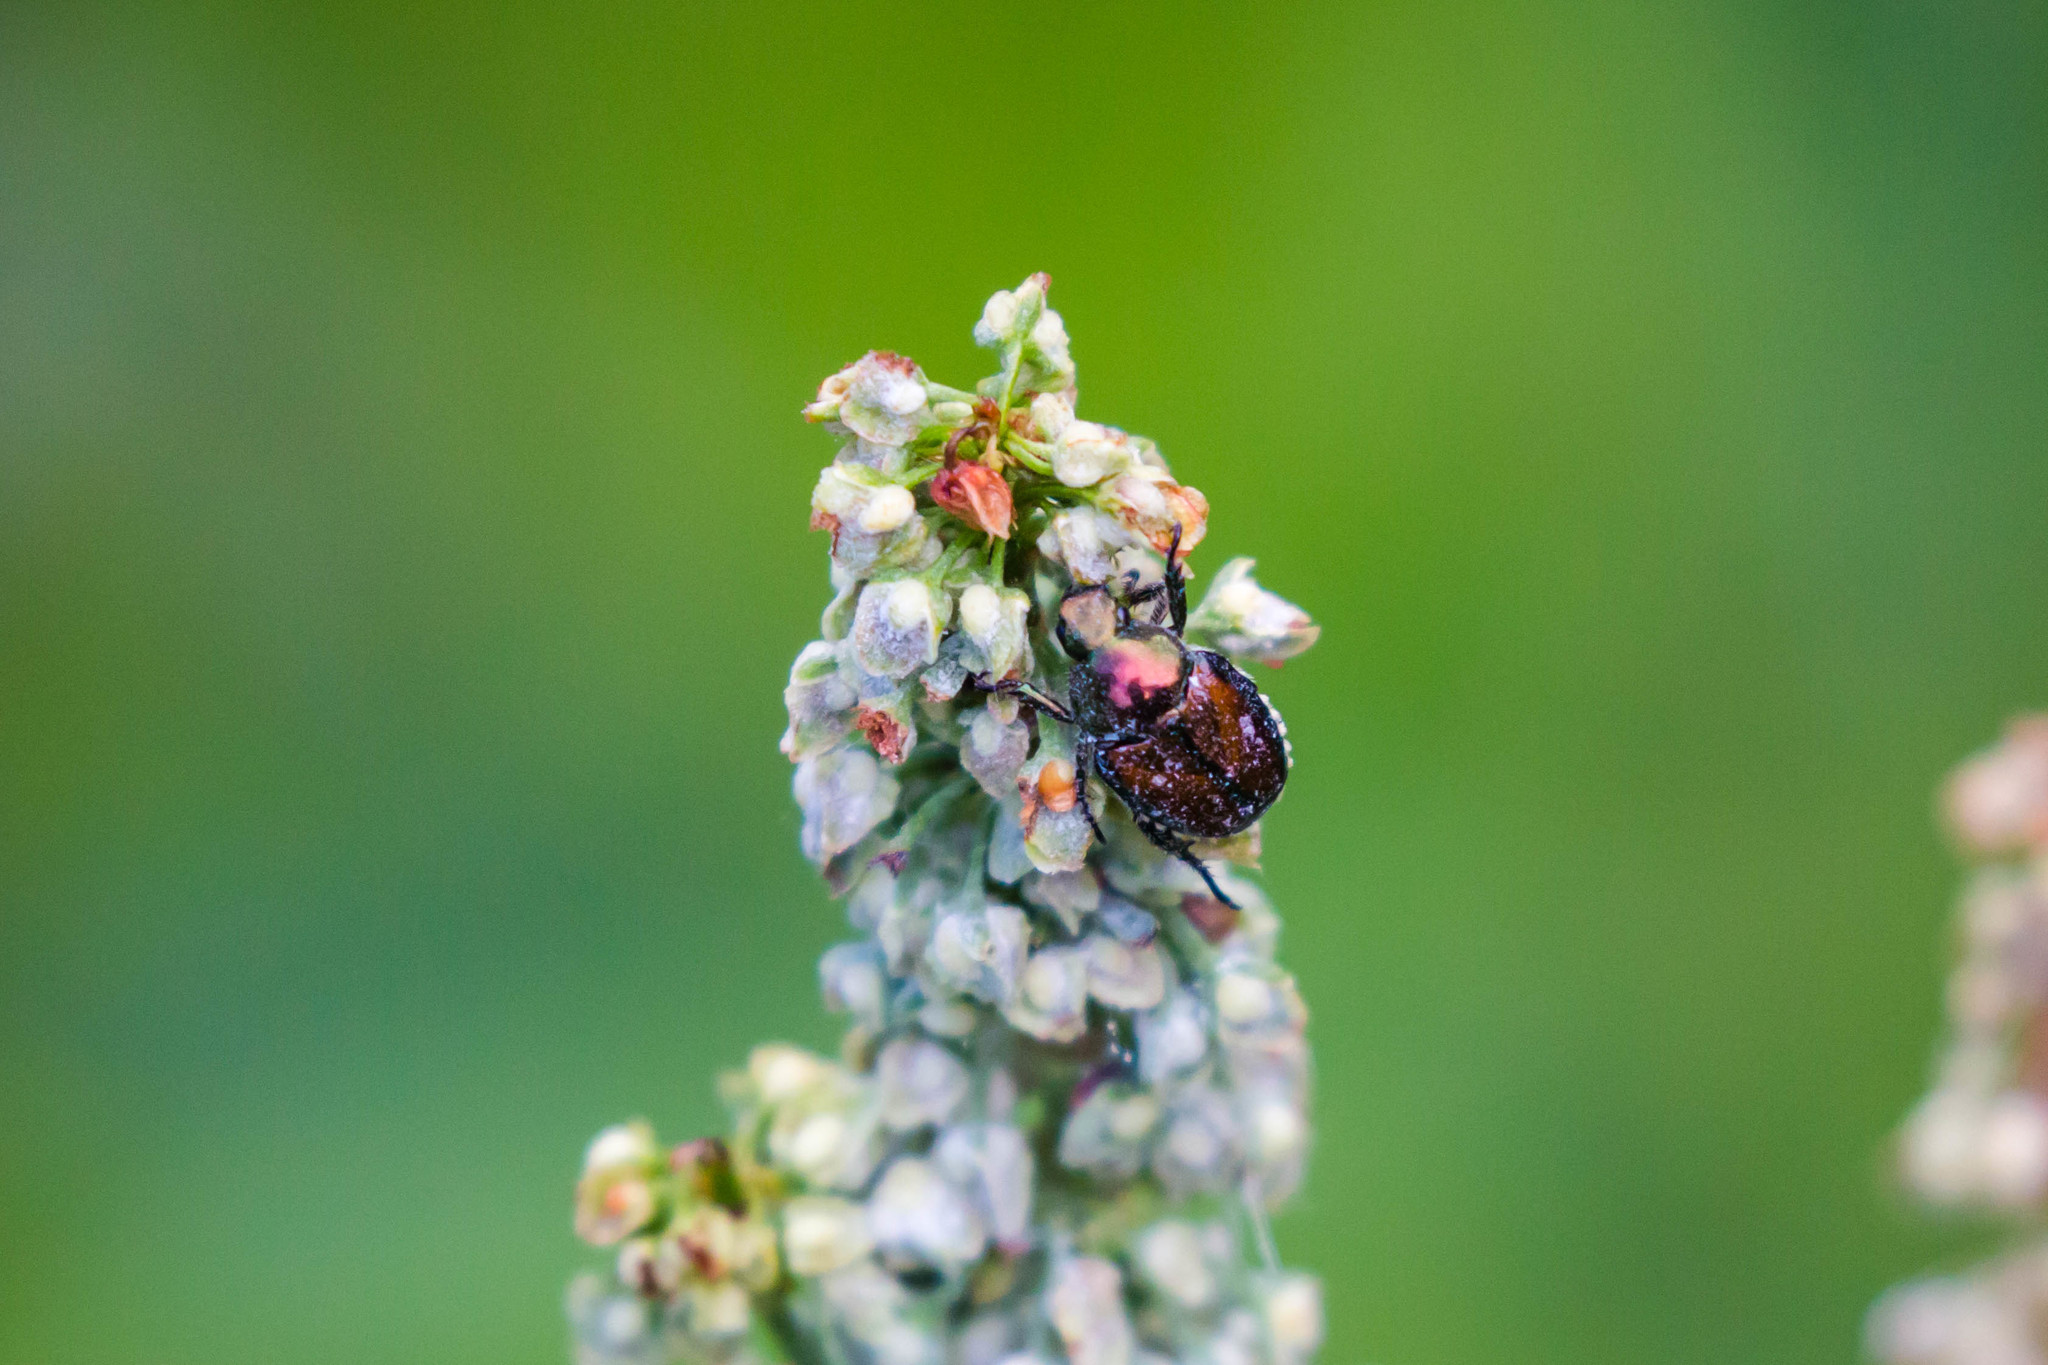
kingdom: Animalia
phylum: Arthropoda
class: Insecta
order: Coleoptera
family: Scarabaeidae
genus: Popillia
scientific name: Popillia japonica
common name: Japanese beetle
